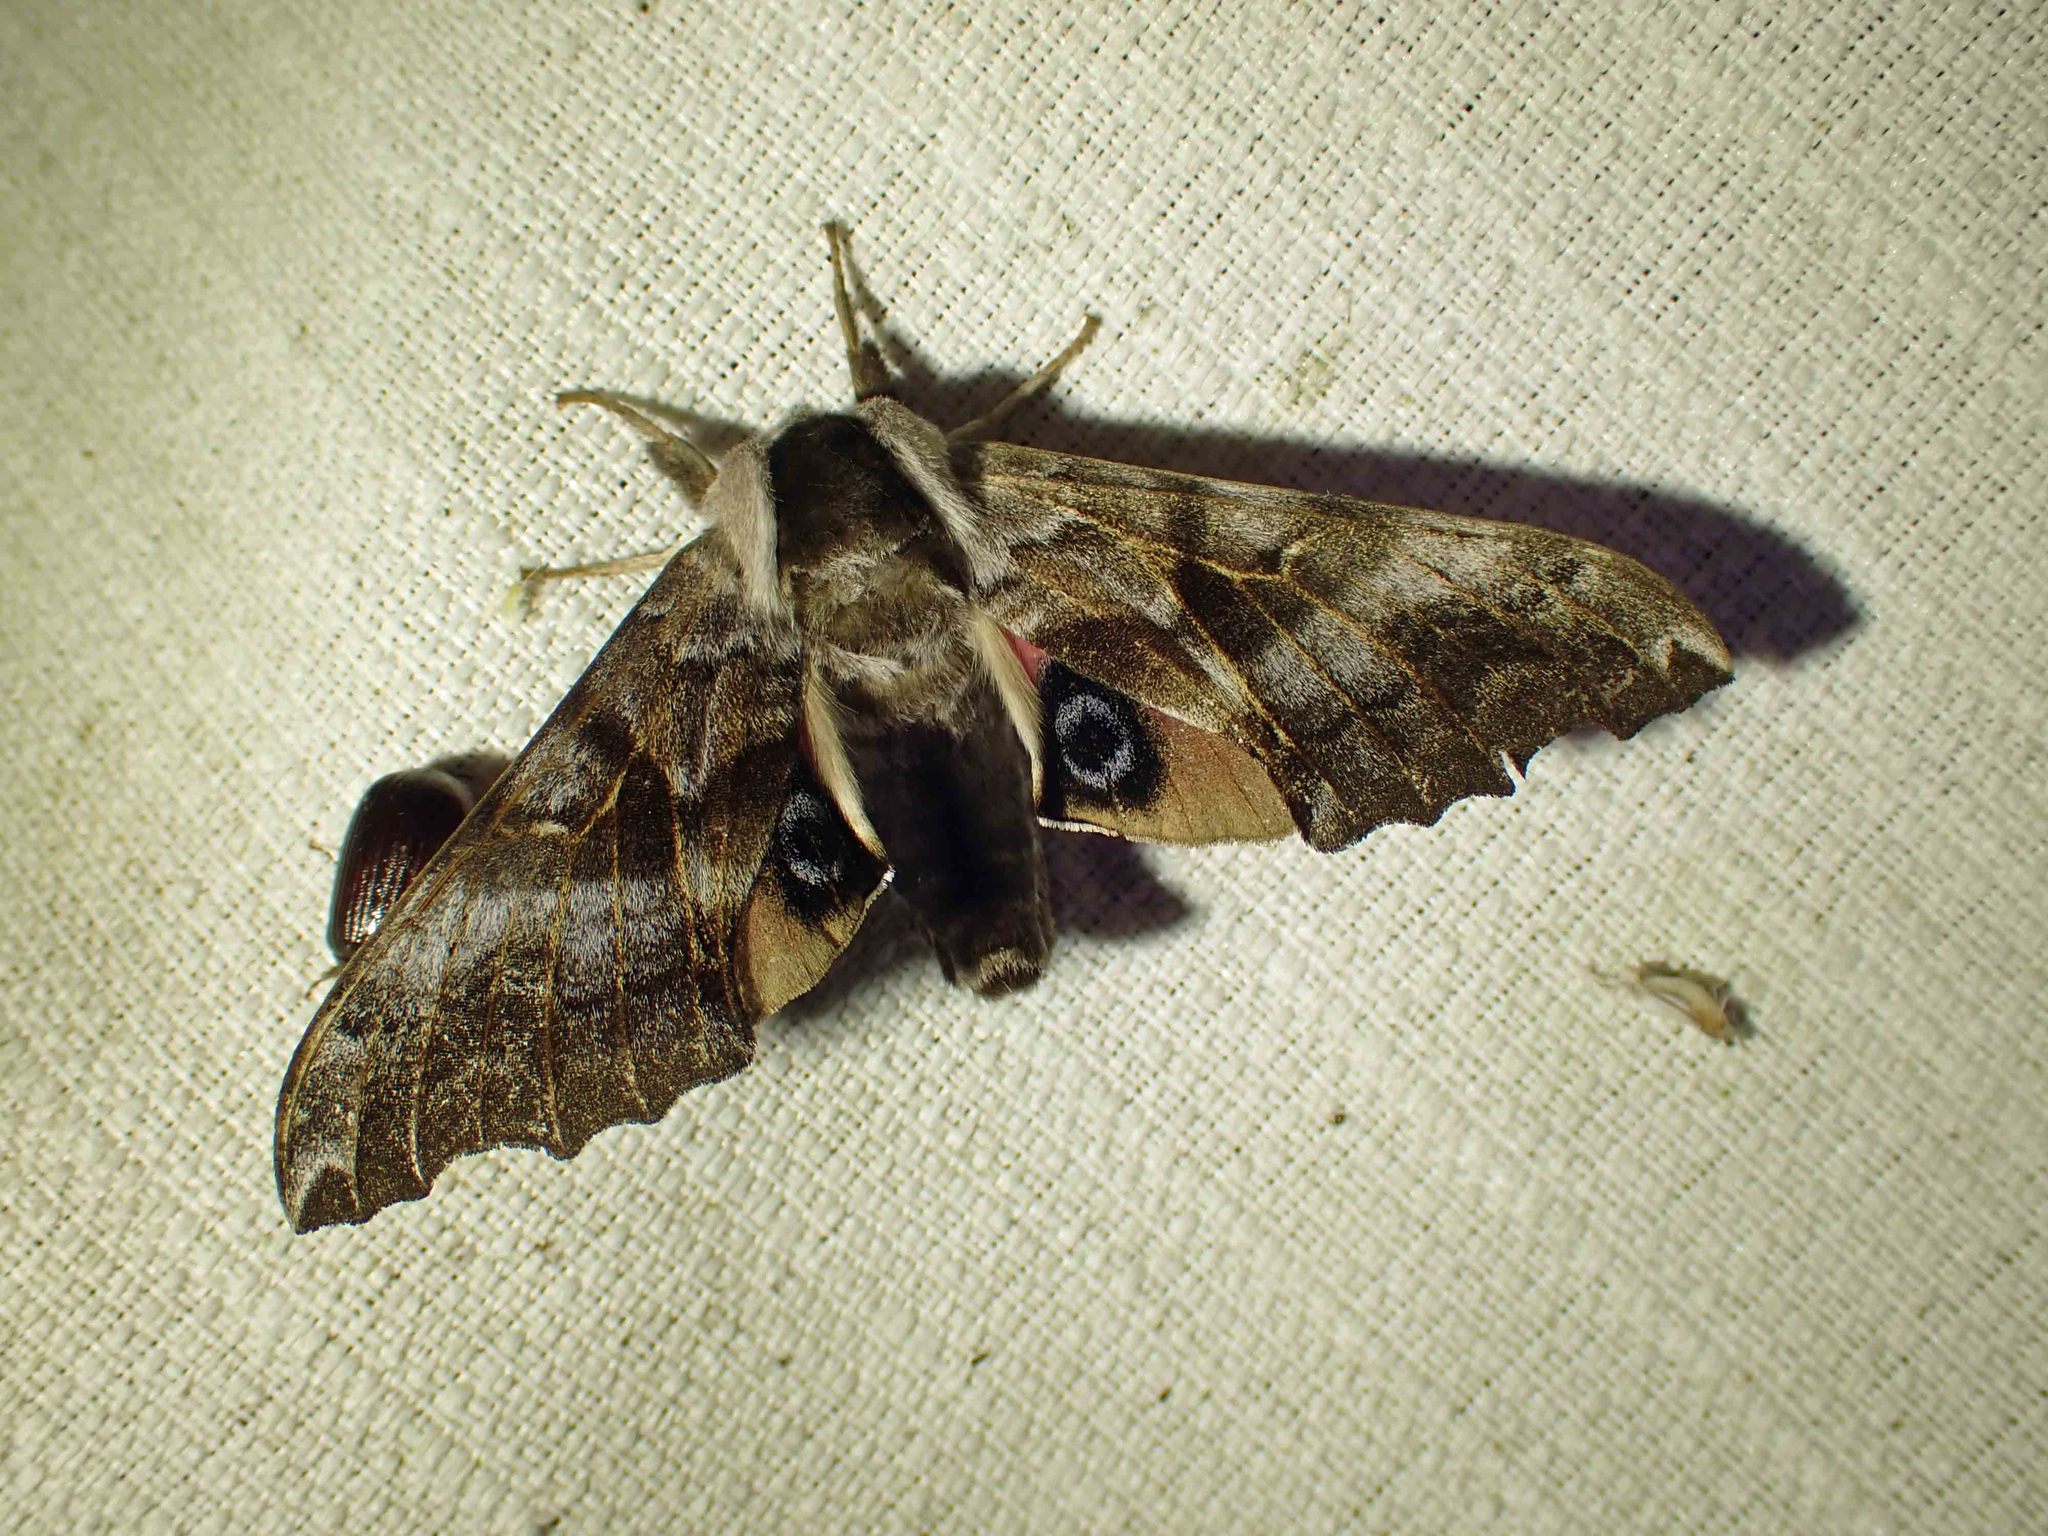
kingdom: Animalia
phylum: Arthropoda
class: Insecta
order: Lepidoptera
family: Sphingidae
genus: Smerinthus
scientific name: Smerinthus cerisyi
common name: Cerisy's sphinx moth
